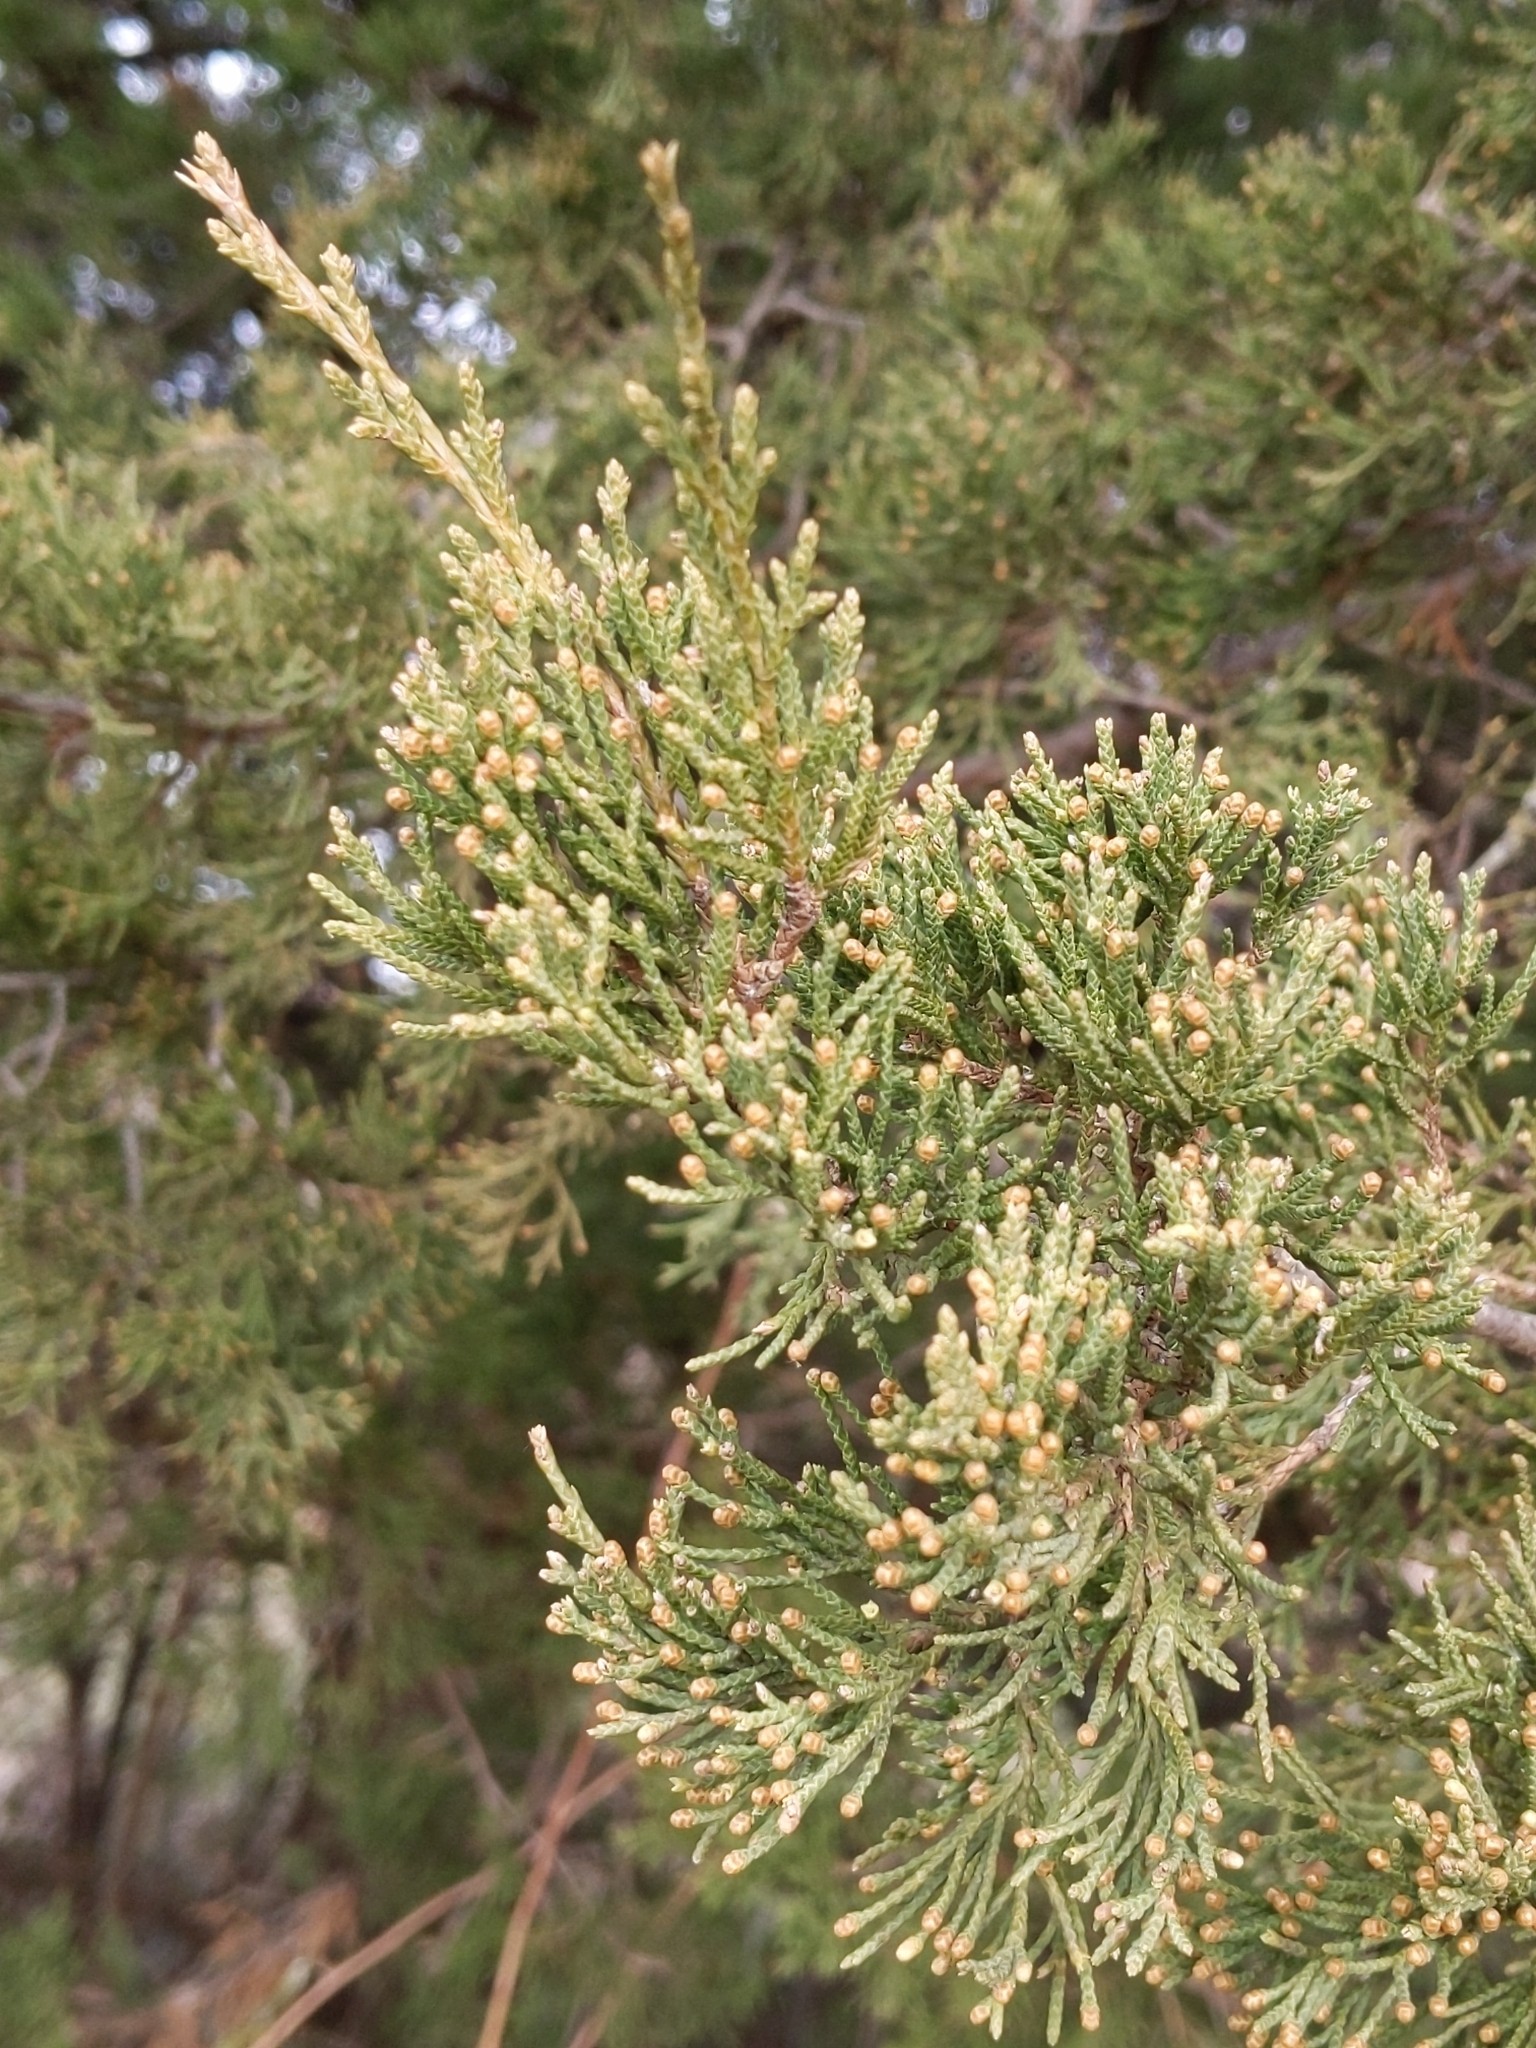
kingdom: Plantae
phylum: Tracheophyta
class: Pinopsida
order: Pinales
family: Cupressaceae
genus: Juniperus
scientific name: Juniperus virginiana
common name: Red juniper
